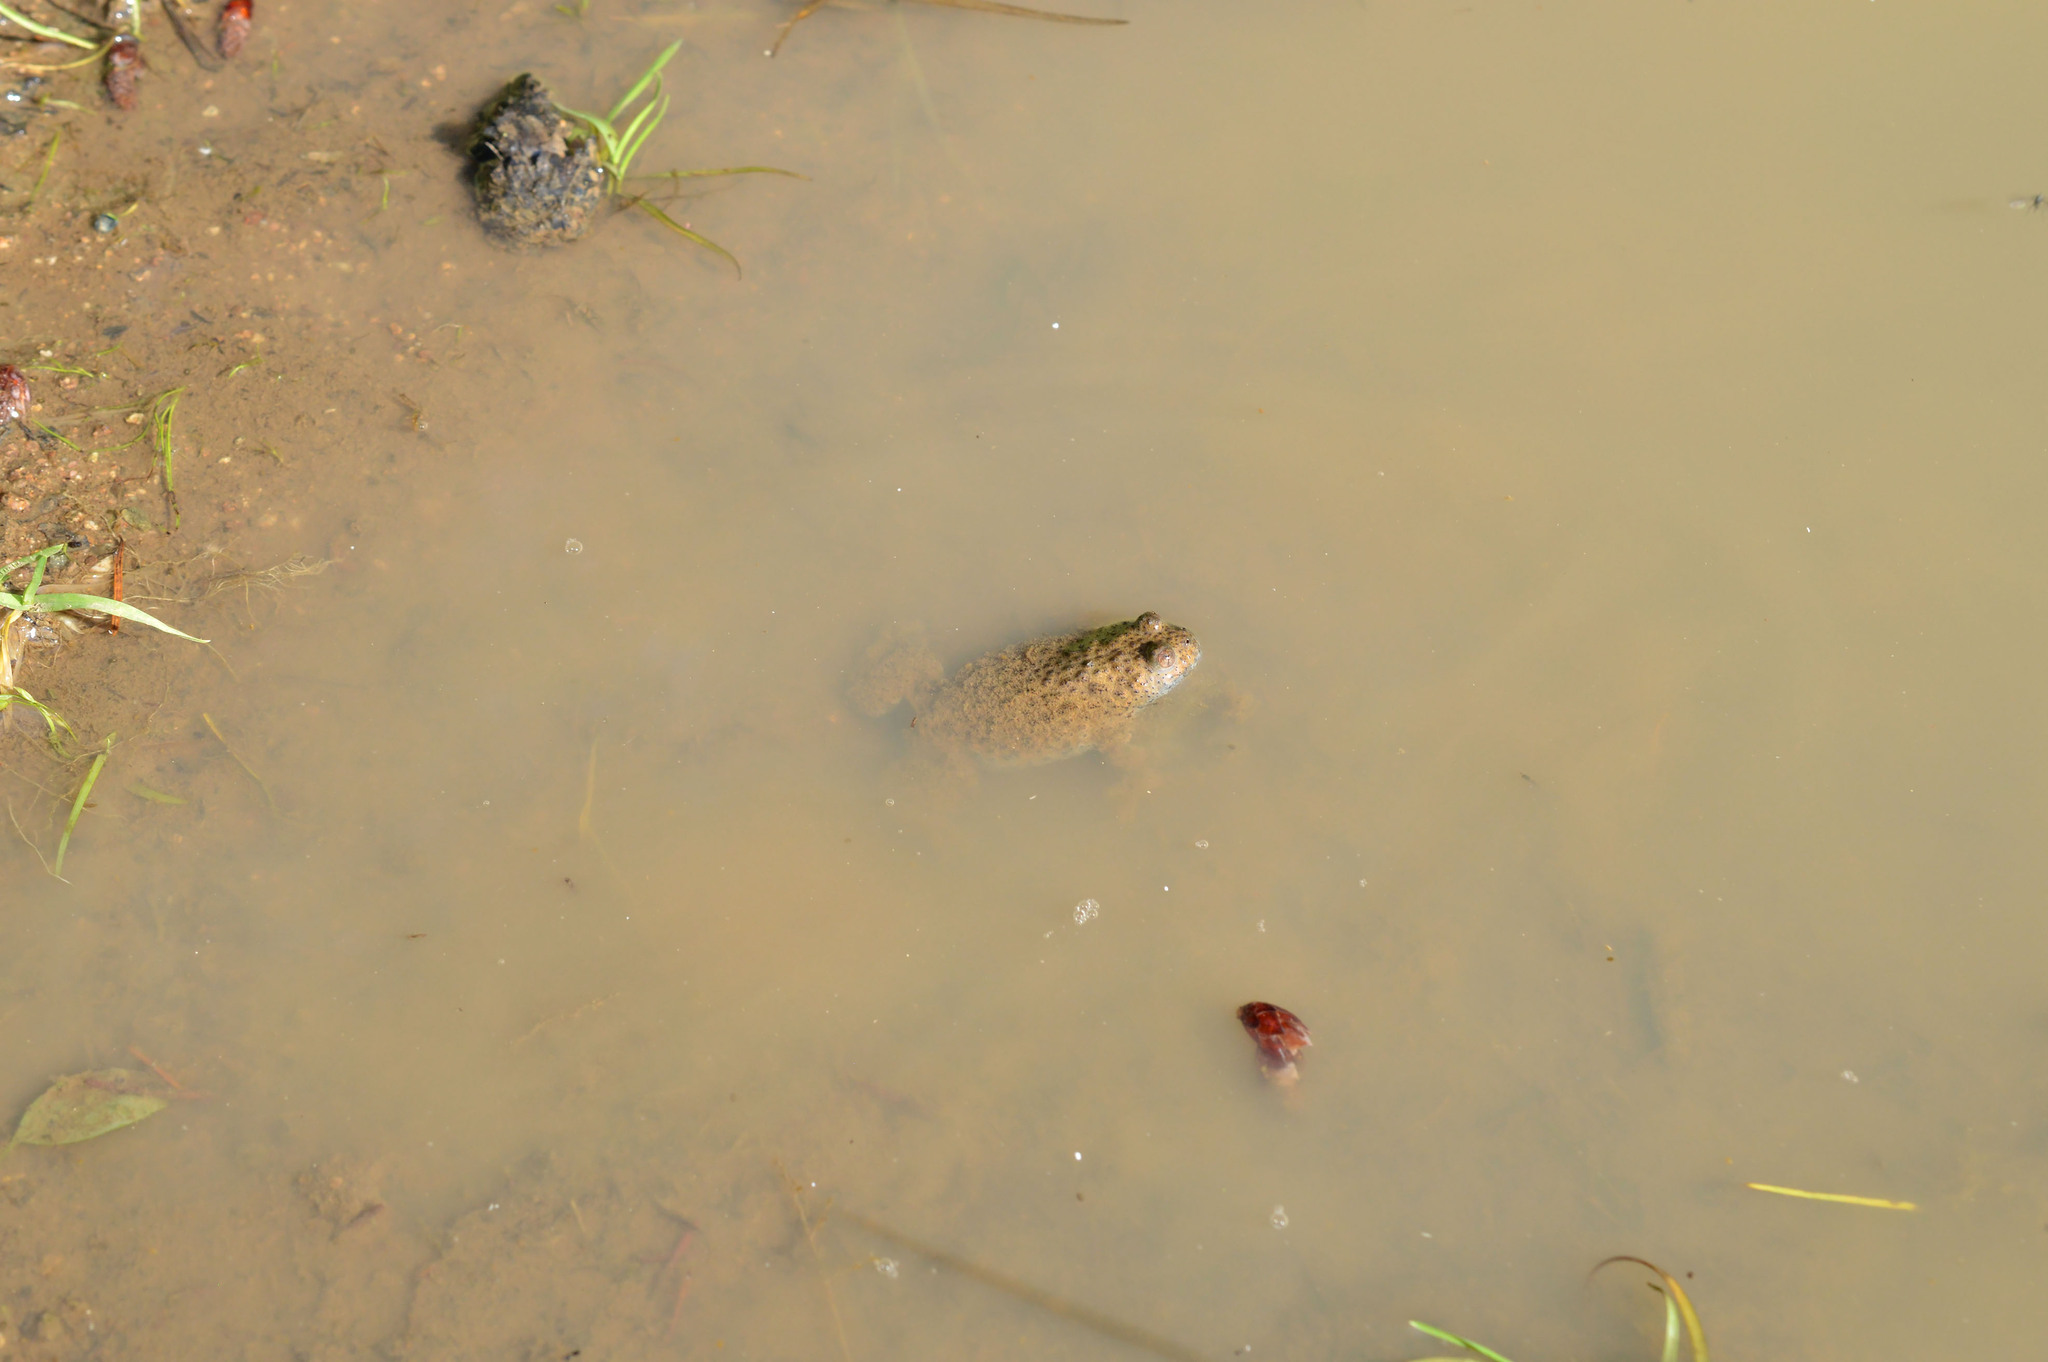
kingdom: Animalia
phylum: Chordata
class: Amphibia
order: Anura
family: Bombinatoridae
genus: Bombina
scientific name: Bombina variegata
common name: Yellow-bellied toad
